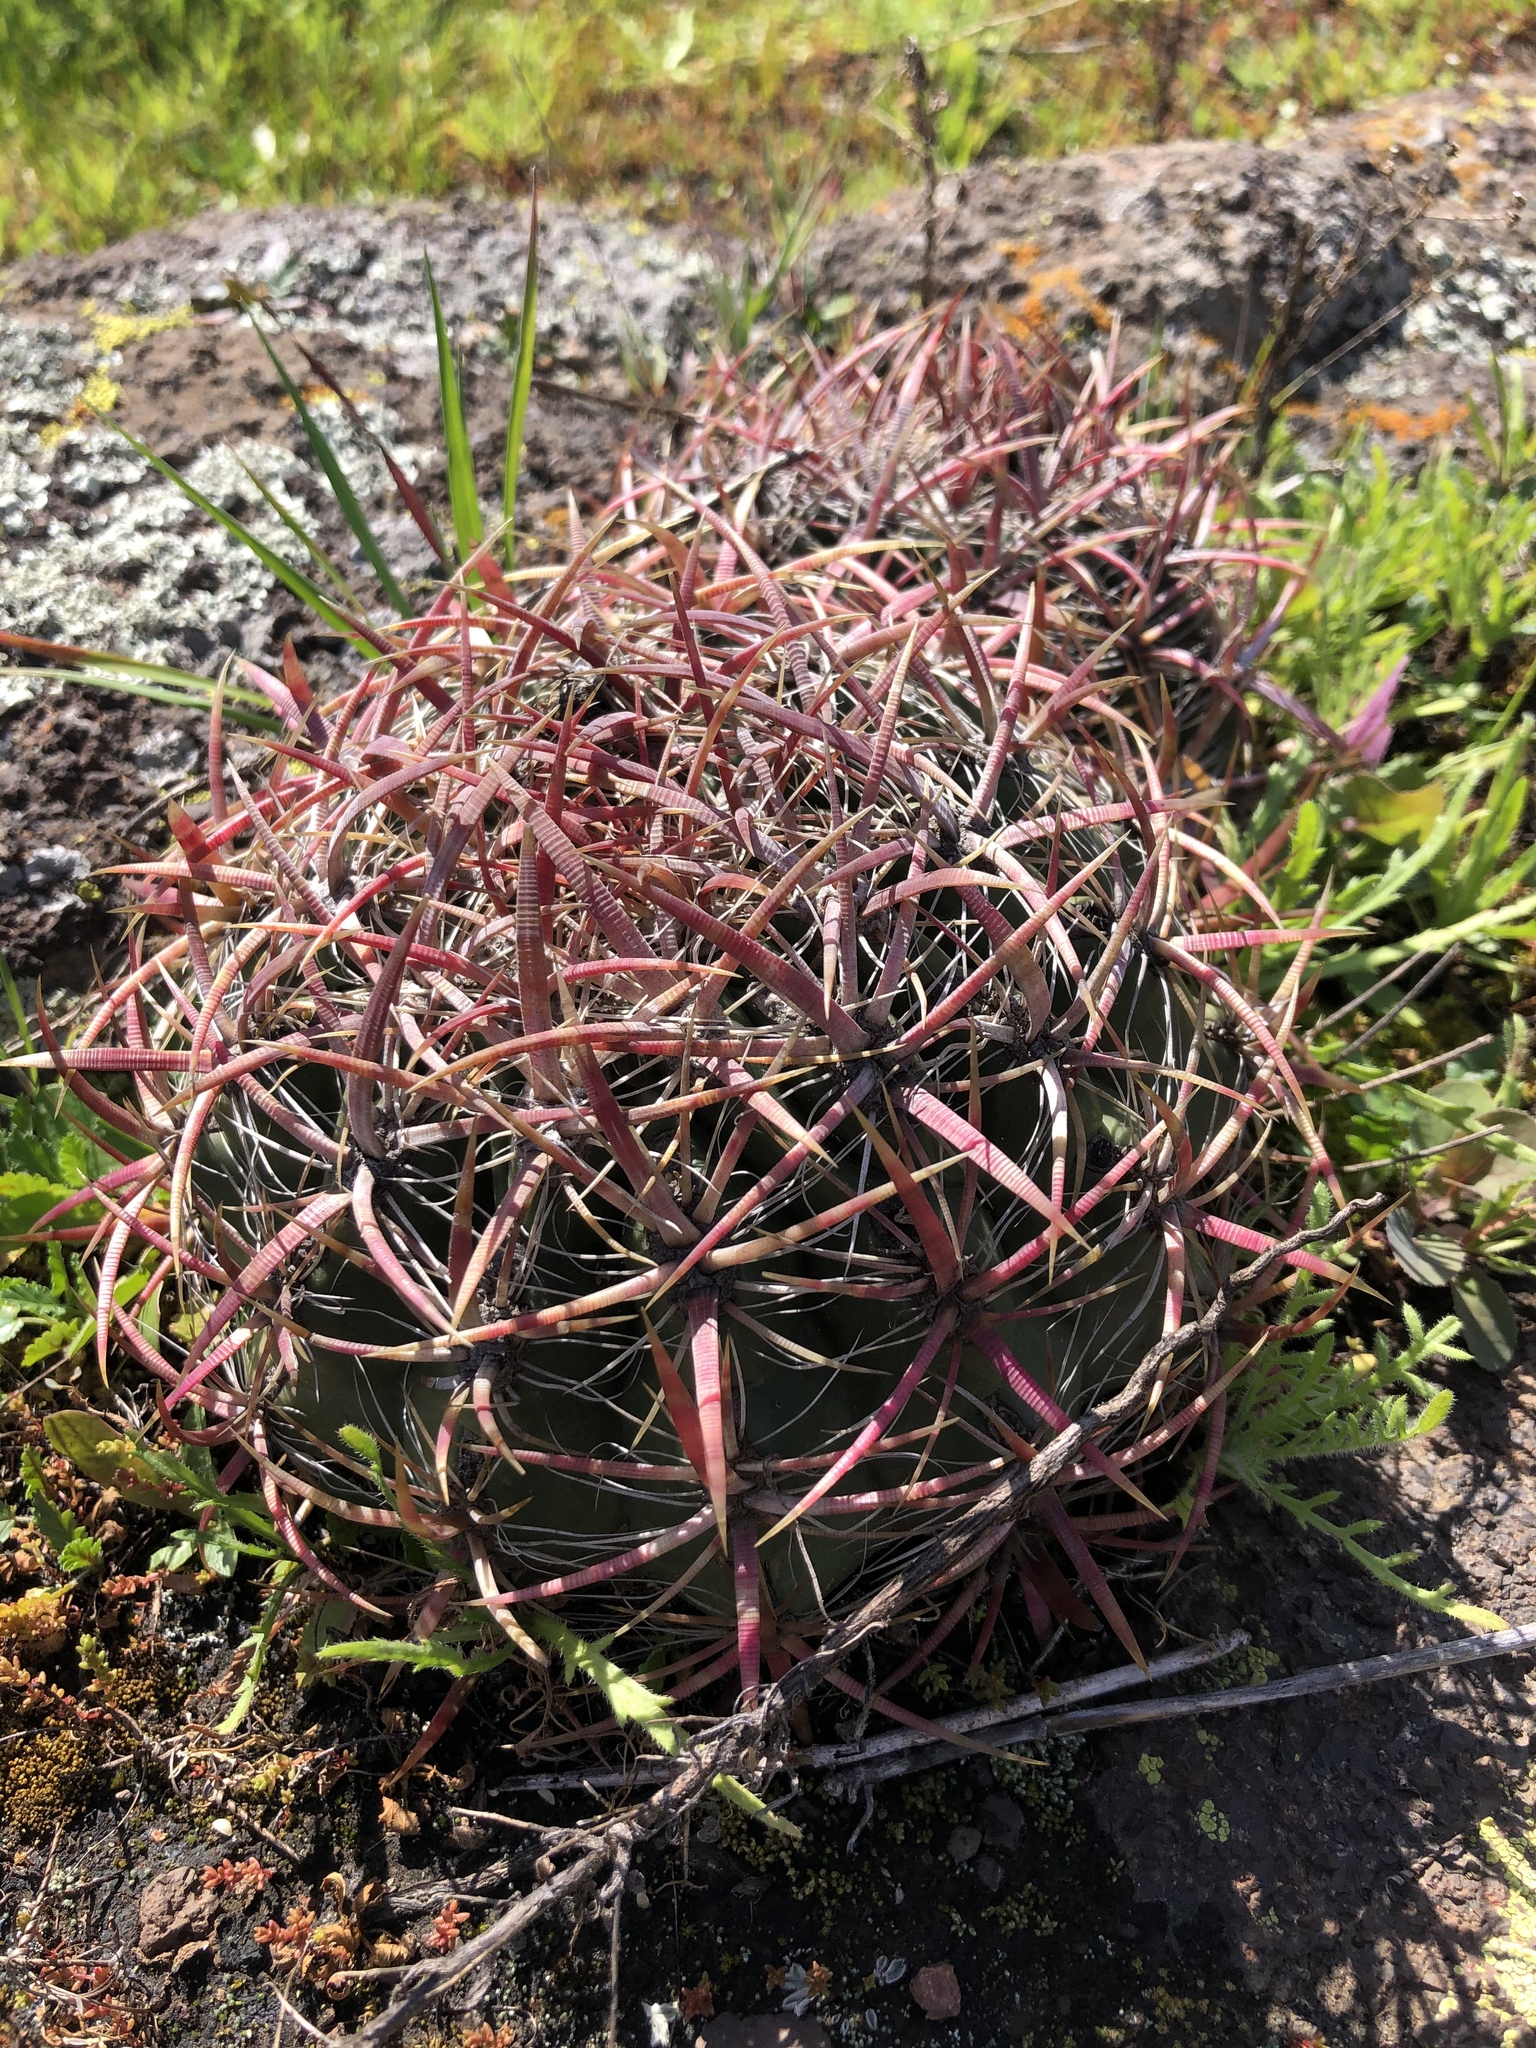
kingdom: Plantae
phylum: Tracheophyta
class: Magnoliopsida
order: Caryophyllales
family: Cactaceae
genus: Ferocactus
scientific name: Ferocactus viridescens
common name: San diego barrel cactus
